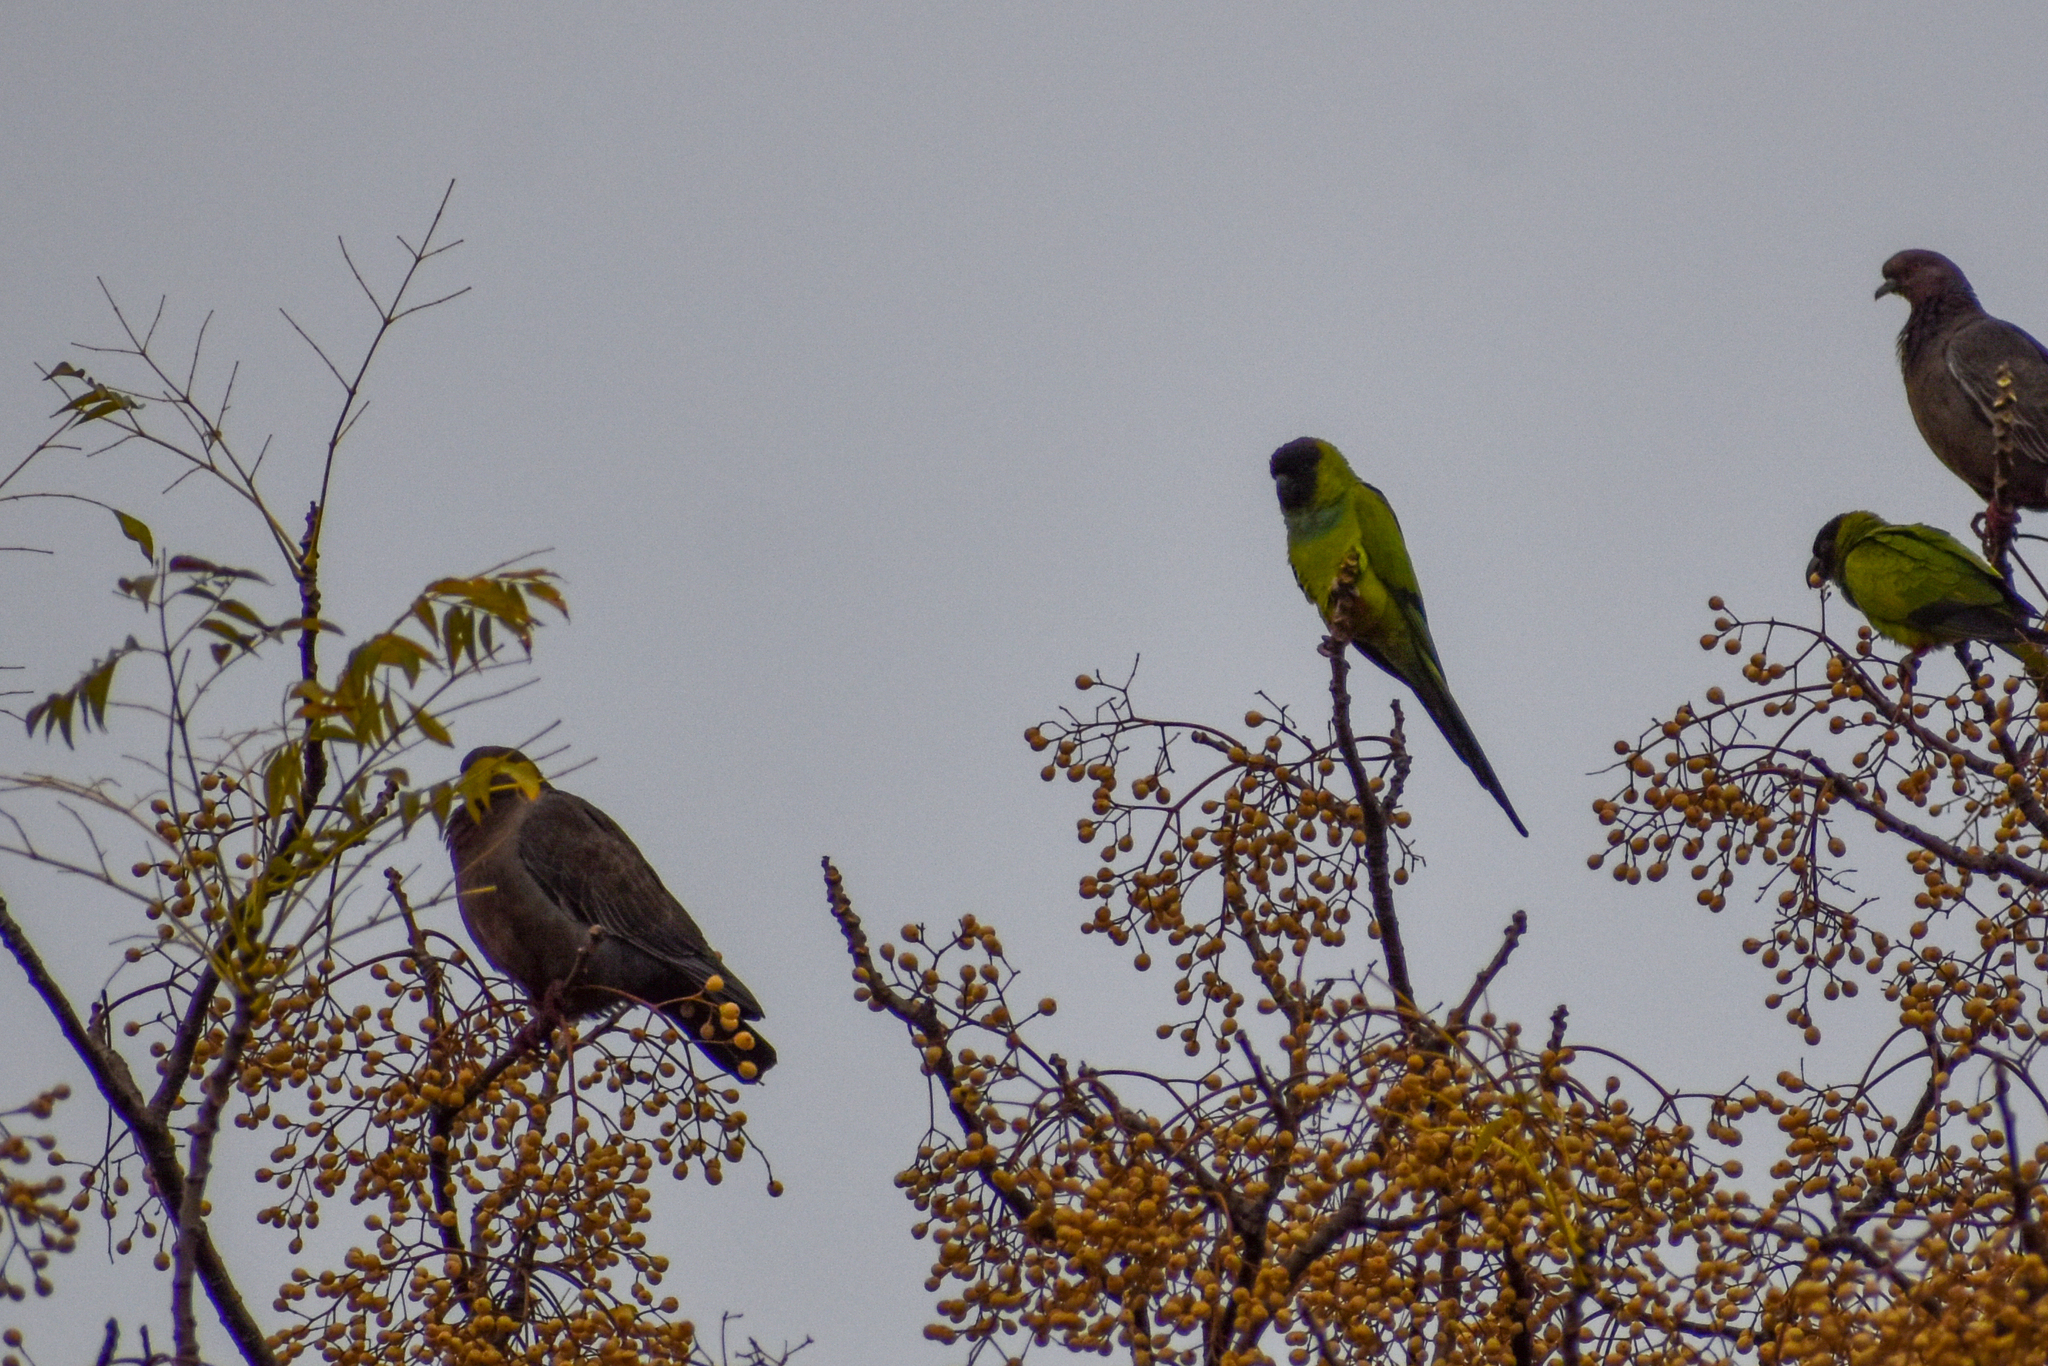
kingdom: Animalia
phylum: Chordata
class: Aves
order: Psittaciformes
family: Psittacidae
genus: Nandayus
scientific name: Nandayus nenday
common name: Nanday parakeet
